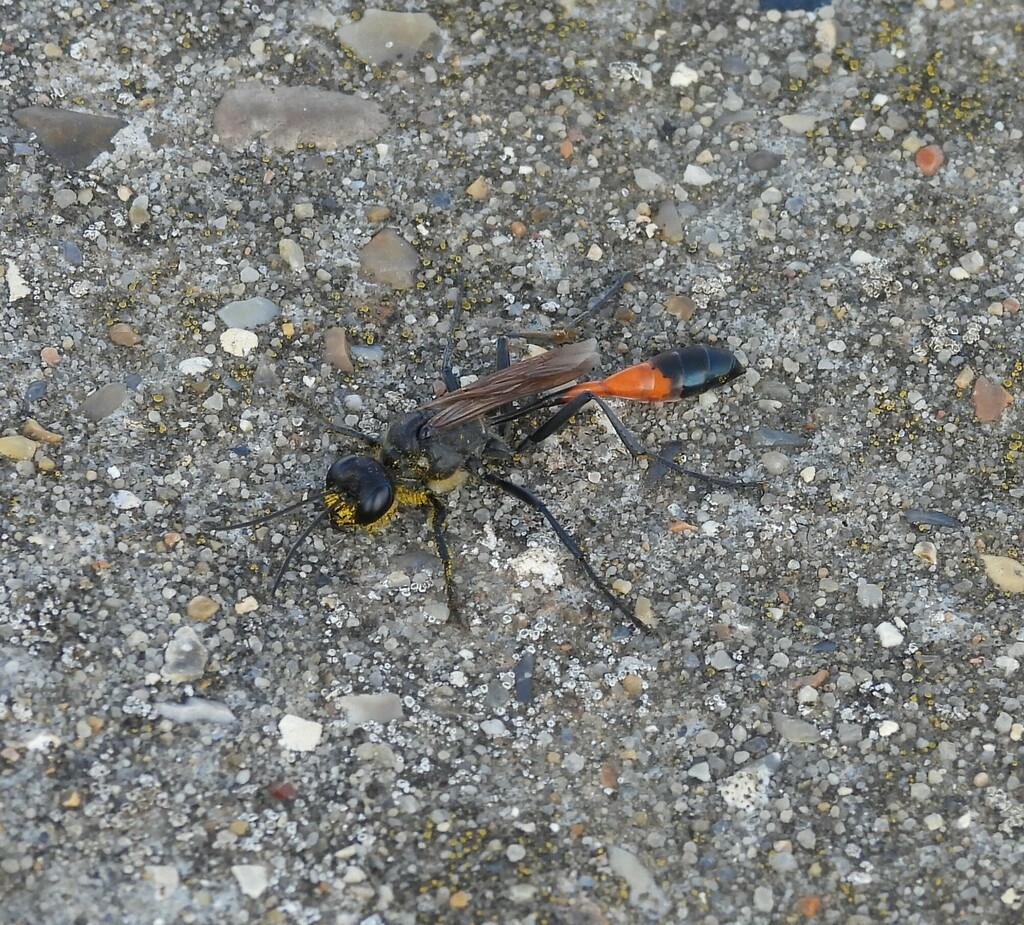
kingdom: Animalia
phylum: Arthropoda
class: Insecta
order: Hymenoptera
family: Sphecidae
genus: Ammophila
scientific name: Ammophila sabulosa
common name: Red banded sand wasp
